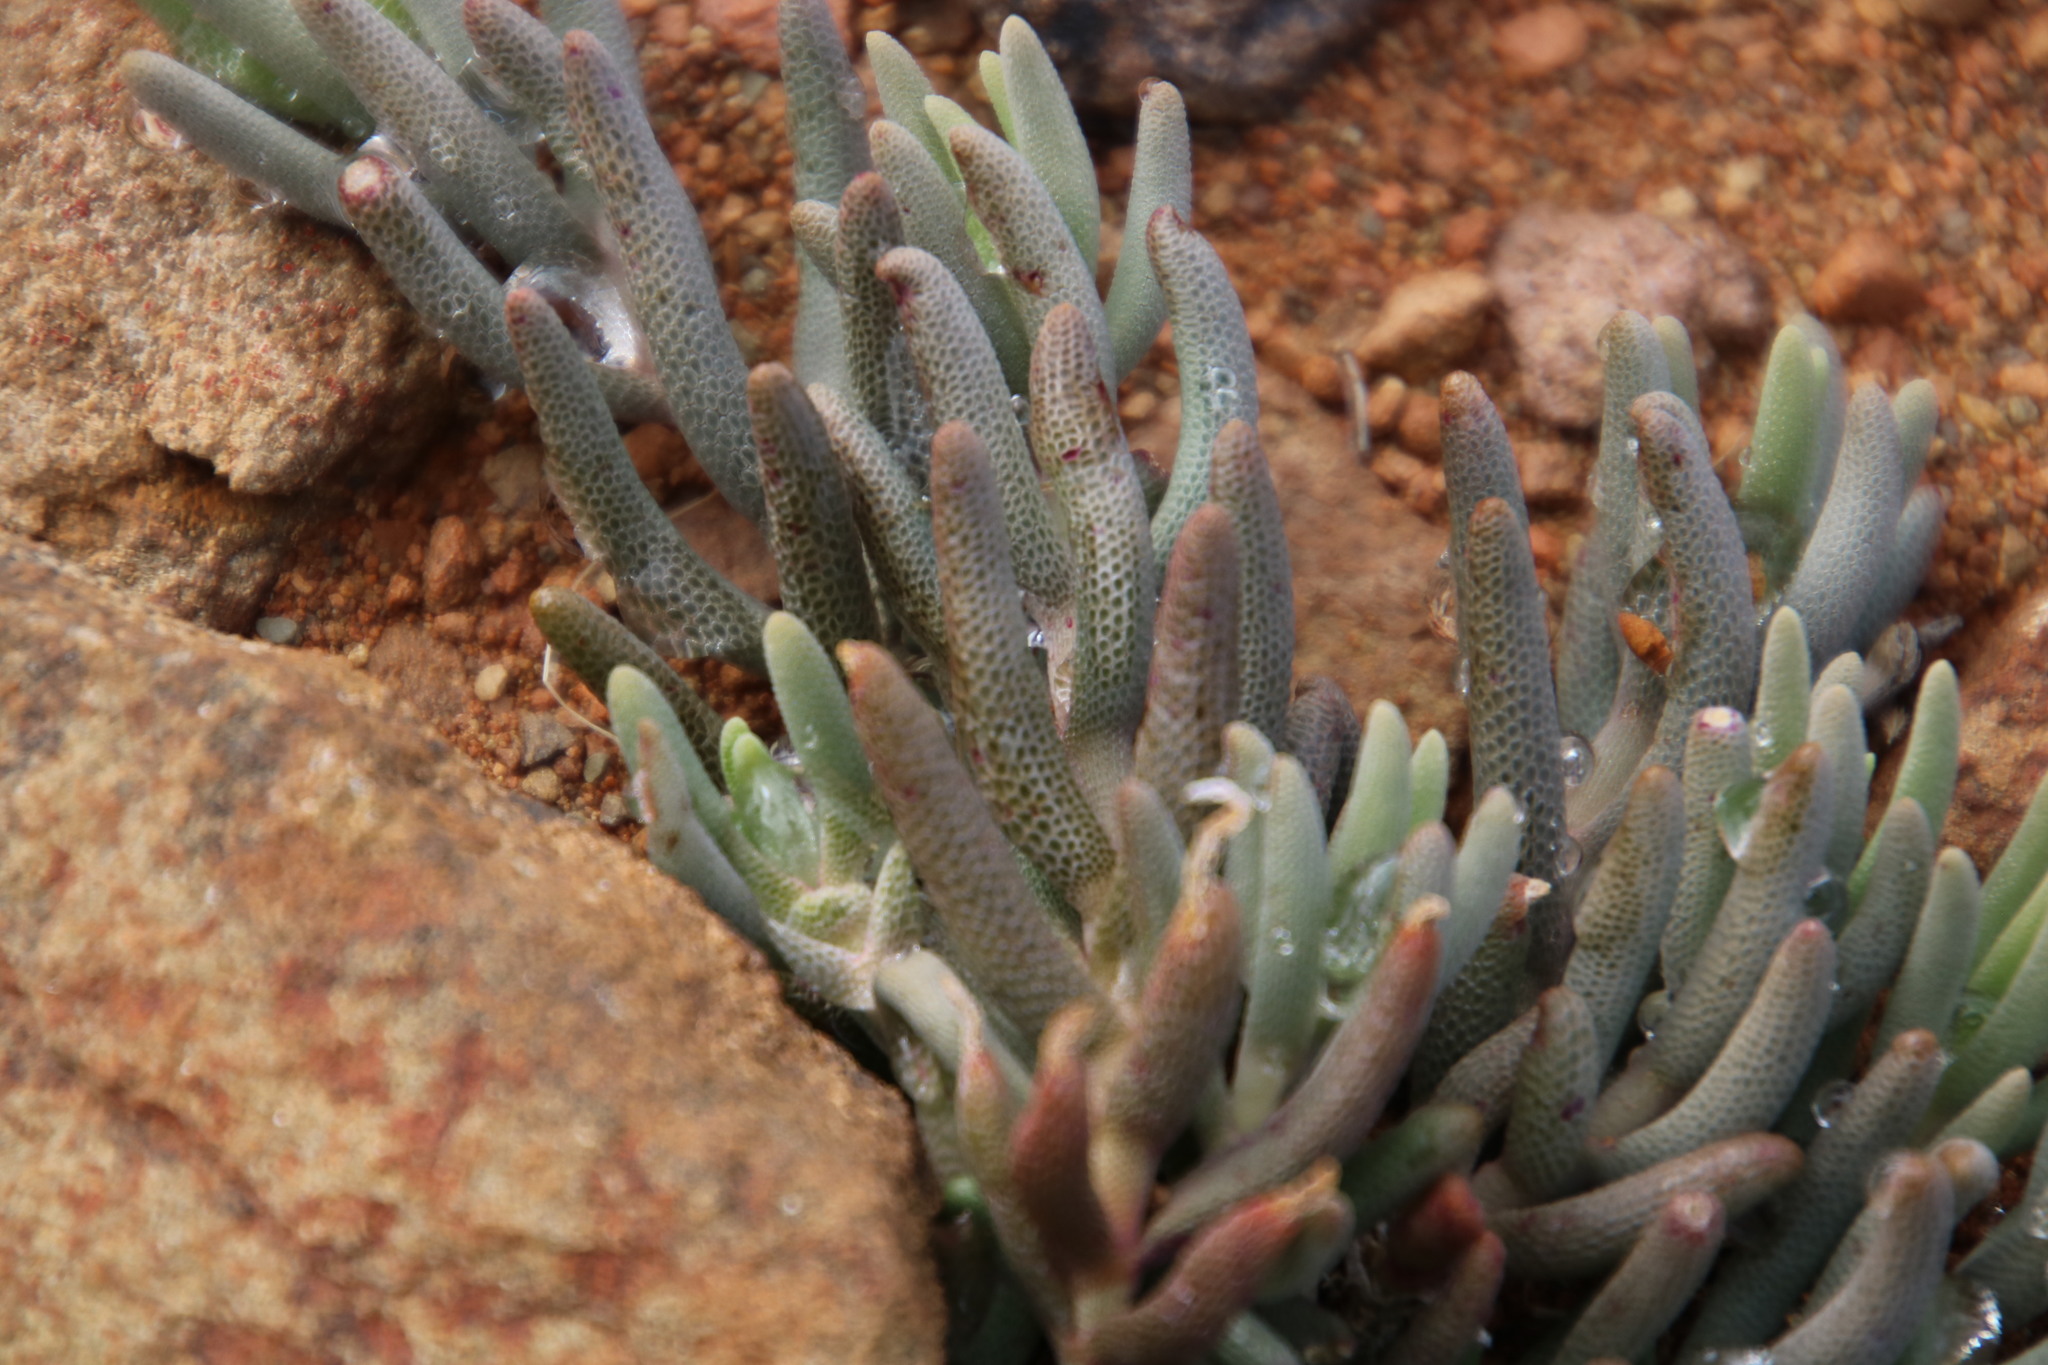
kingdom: Plantae
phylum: Tracheophyta
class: Magnoliopsida
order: Caryophyllales
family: Aizoaceae
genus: Mesembryanthemum
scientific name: Mesembryanthemum grossum
